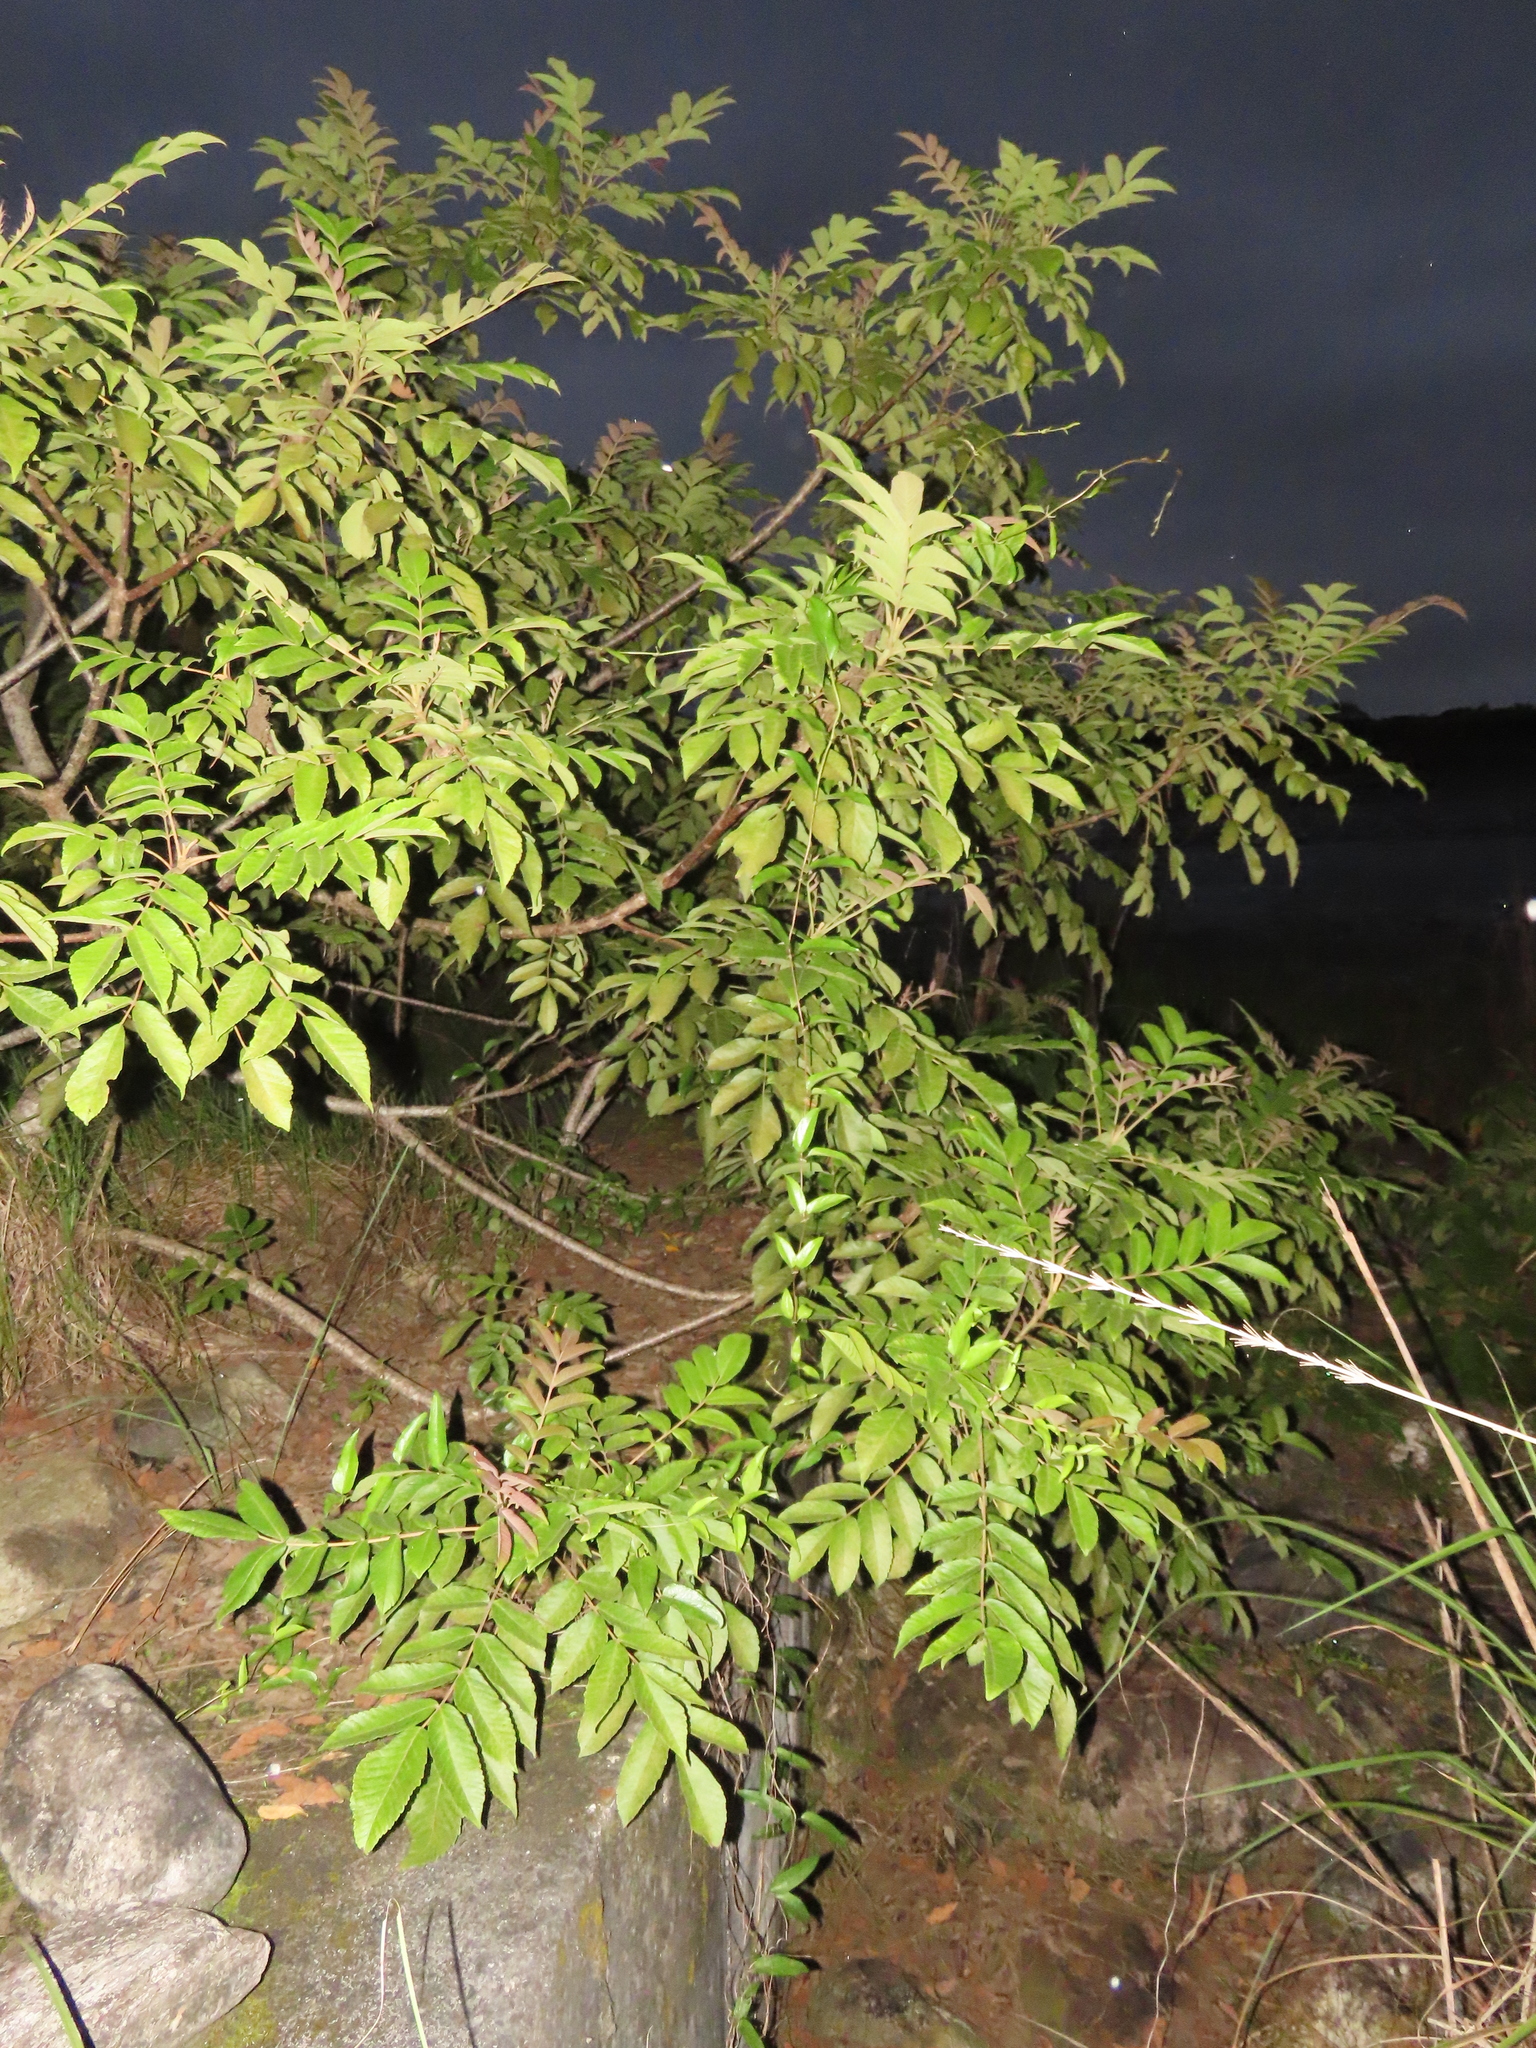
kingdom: Plantae
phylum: Tracheophyta
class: Magnoliopsida
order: Sapindales
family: Anacardiaceae
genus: Rhus
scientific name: Rhus chinensis
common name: Chinese gall
